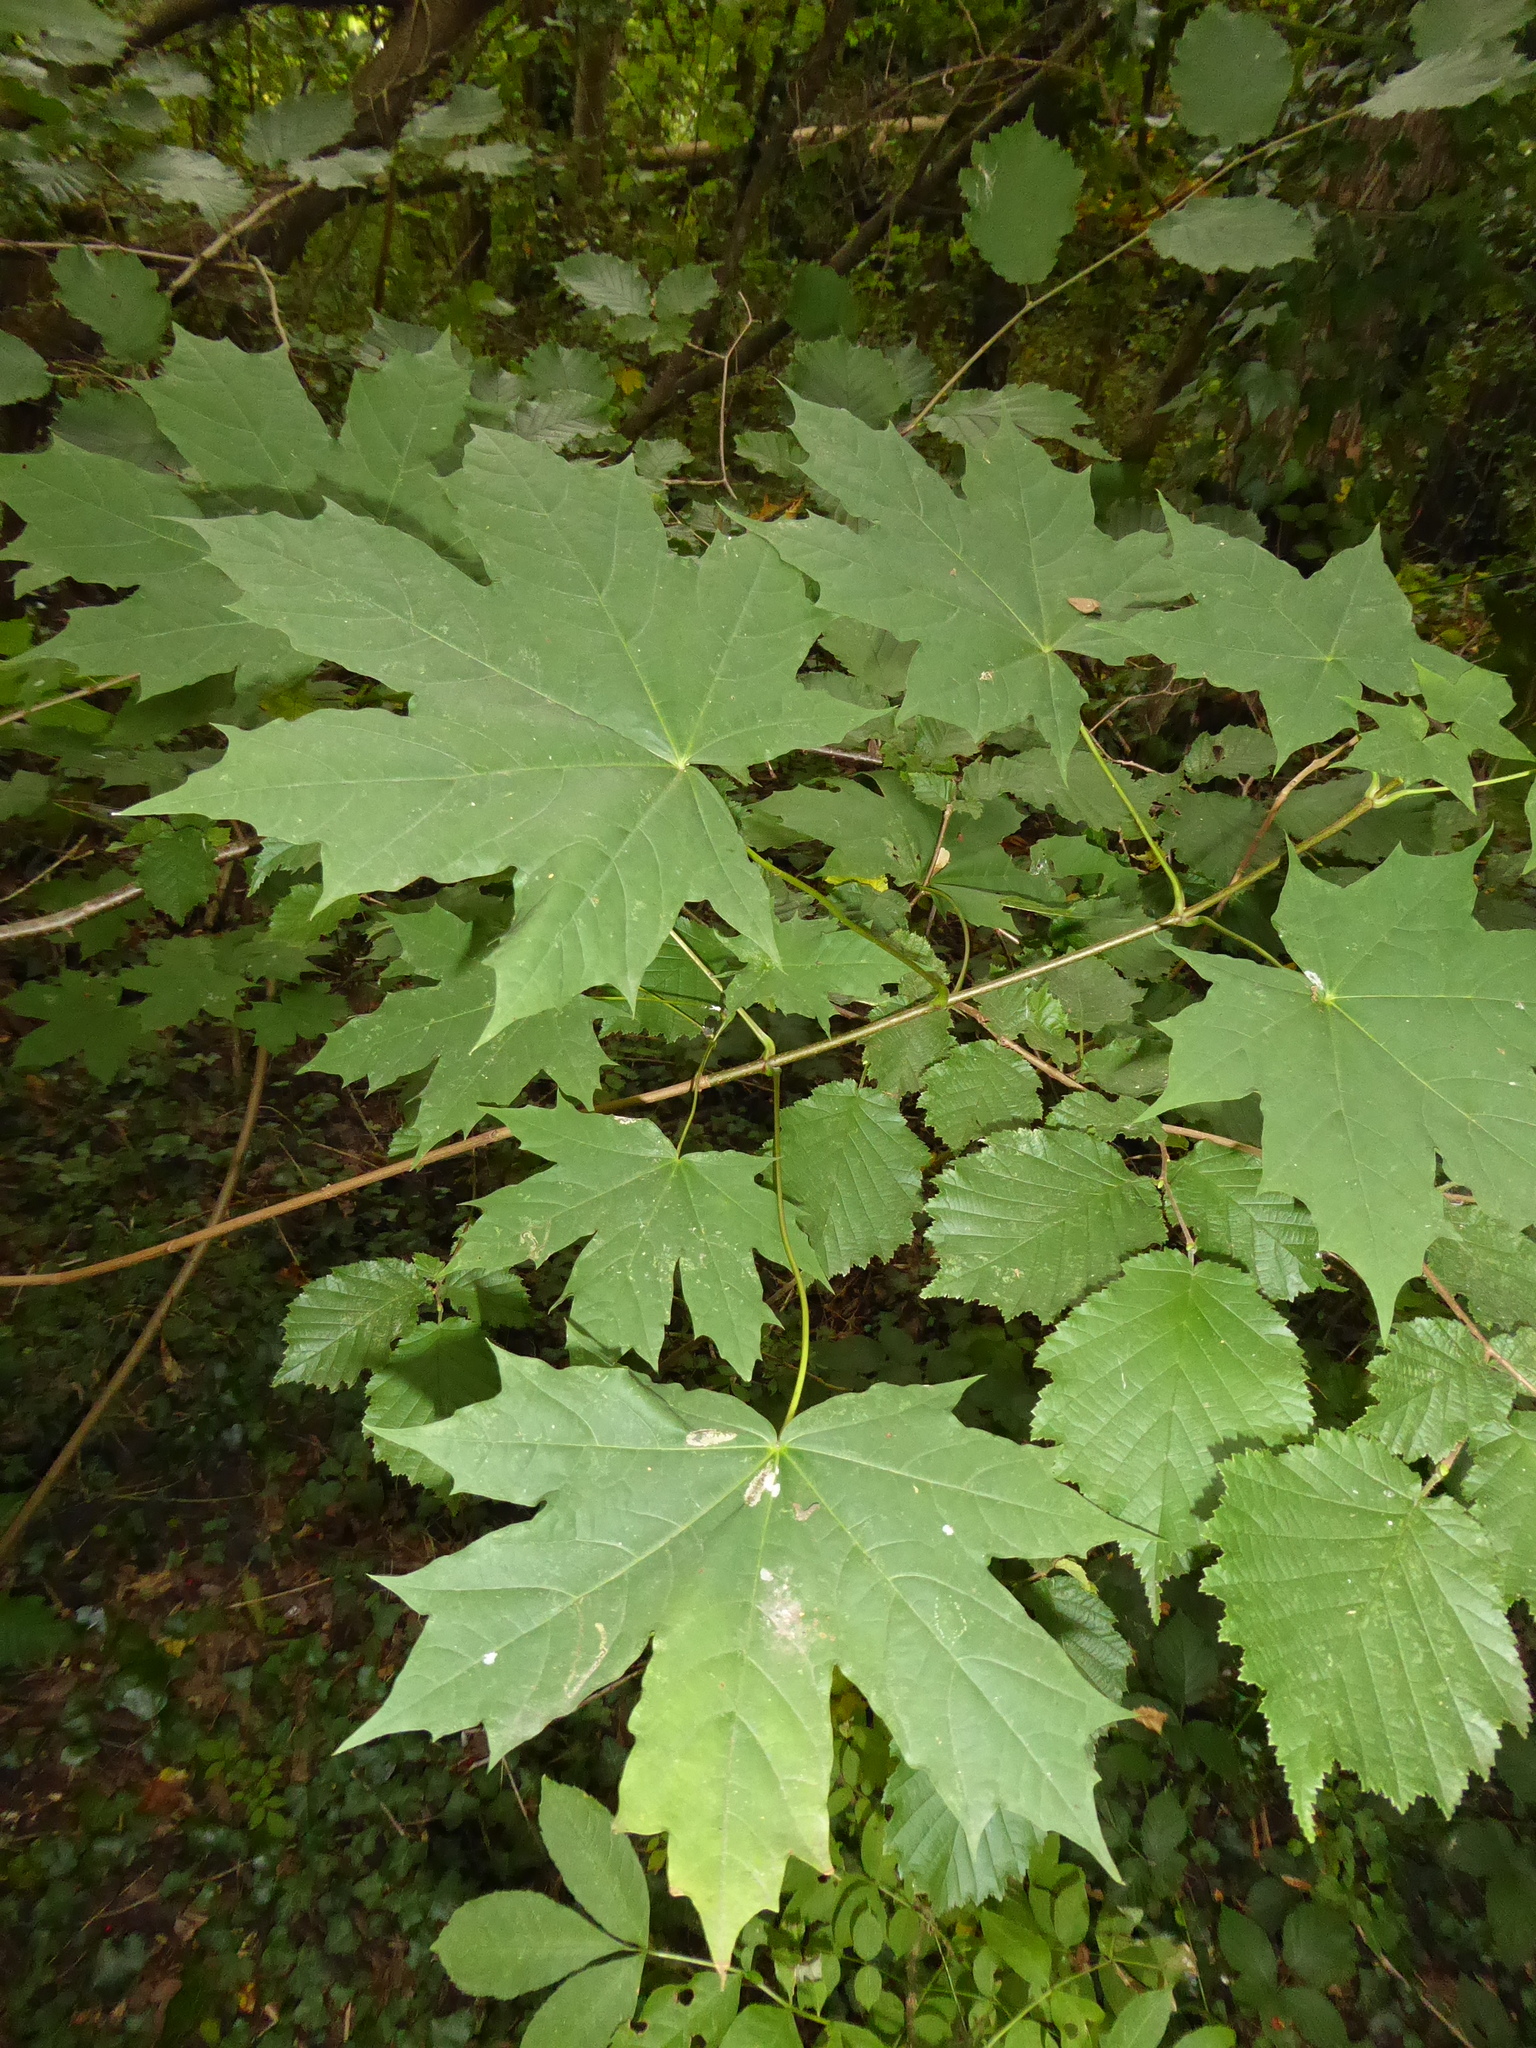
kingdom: Plantae
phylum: Tracheophyta
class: Magnoliopsida
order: Sapindales
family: Sapindaceae
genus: Acer
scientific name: Acer platanoides
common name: Norway maple
